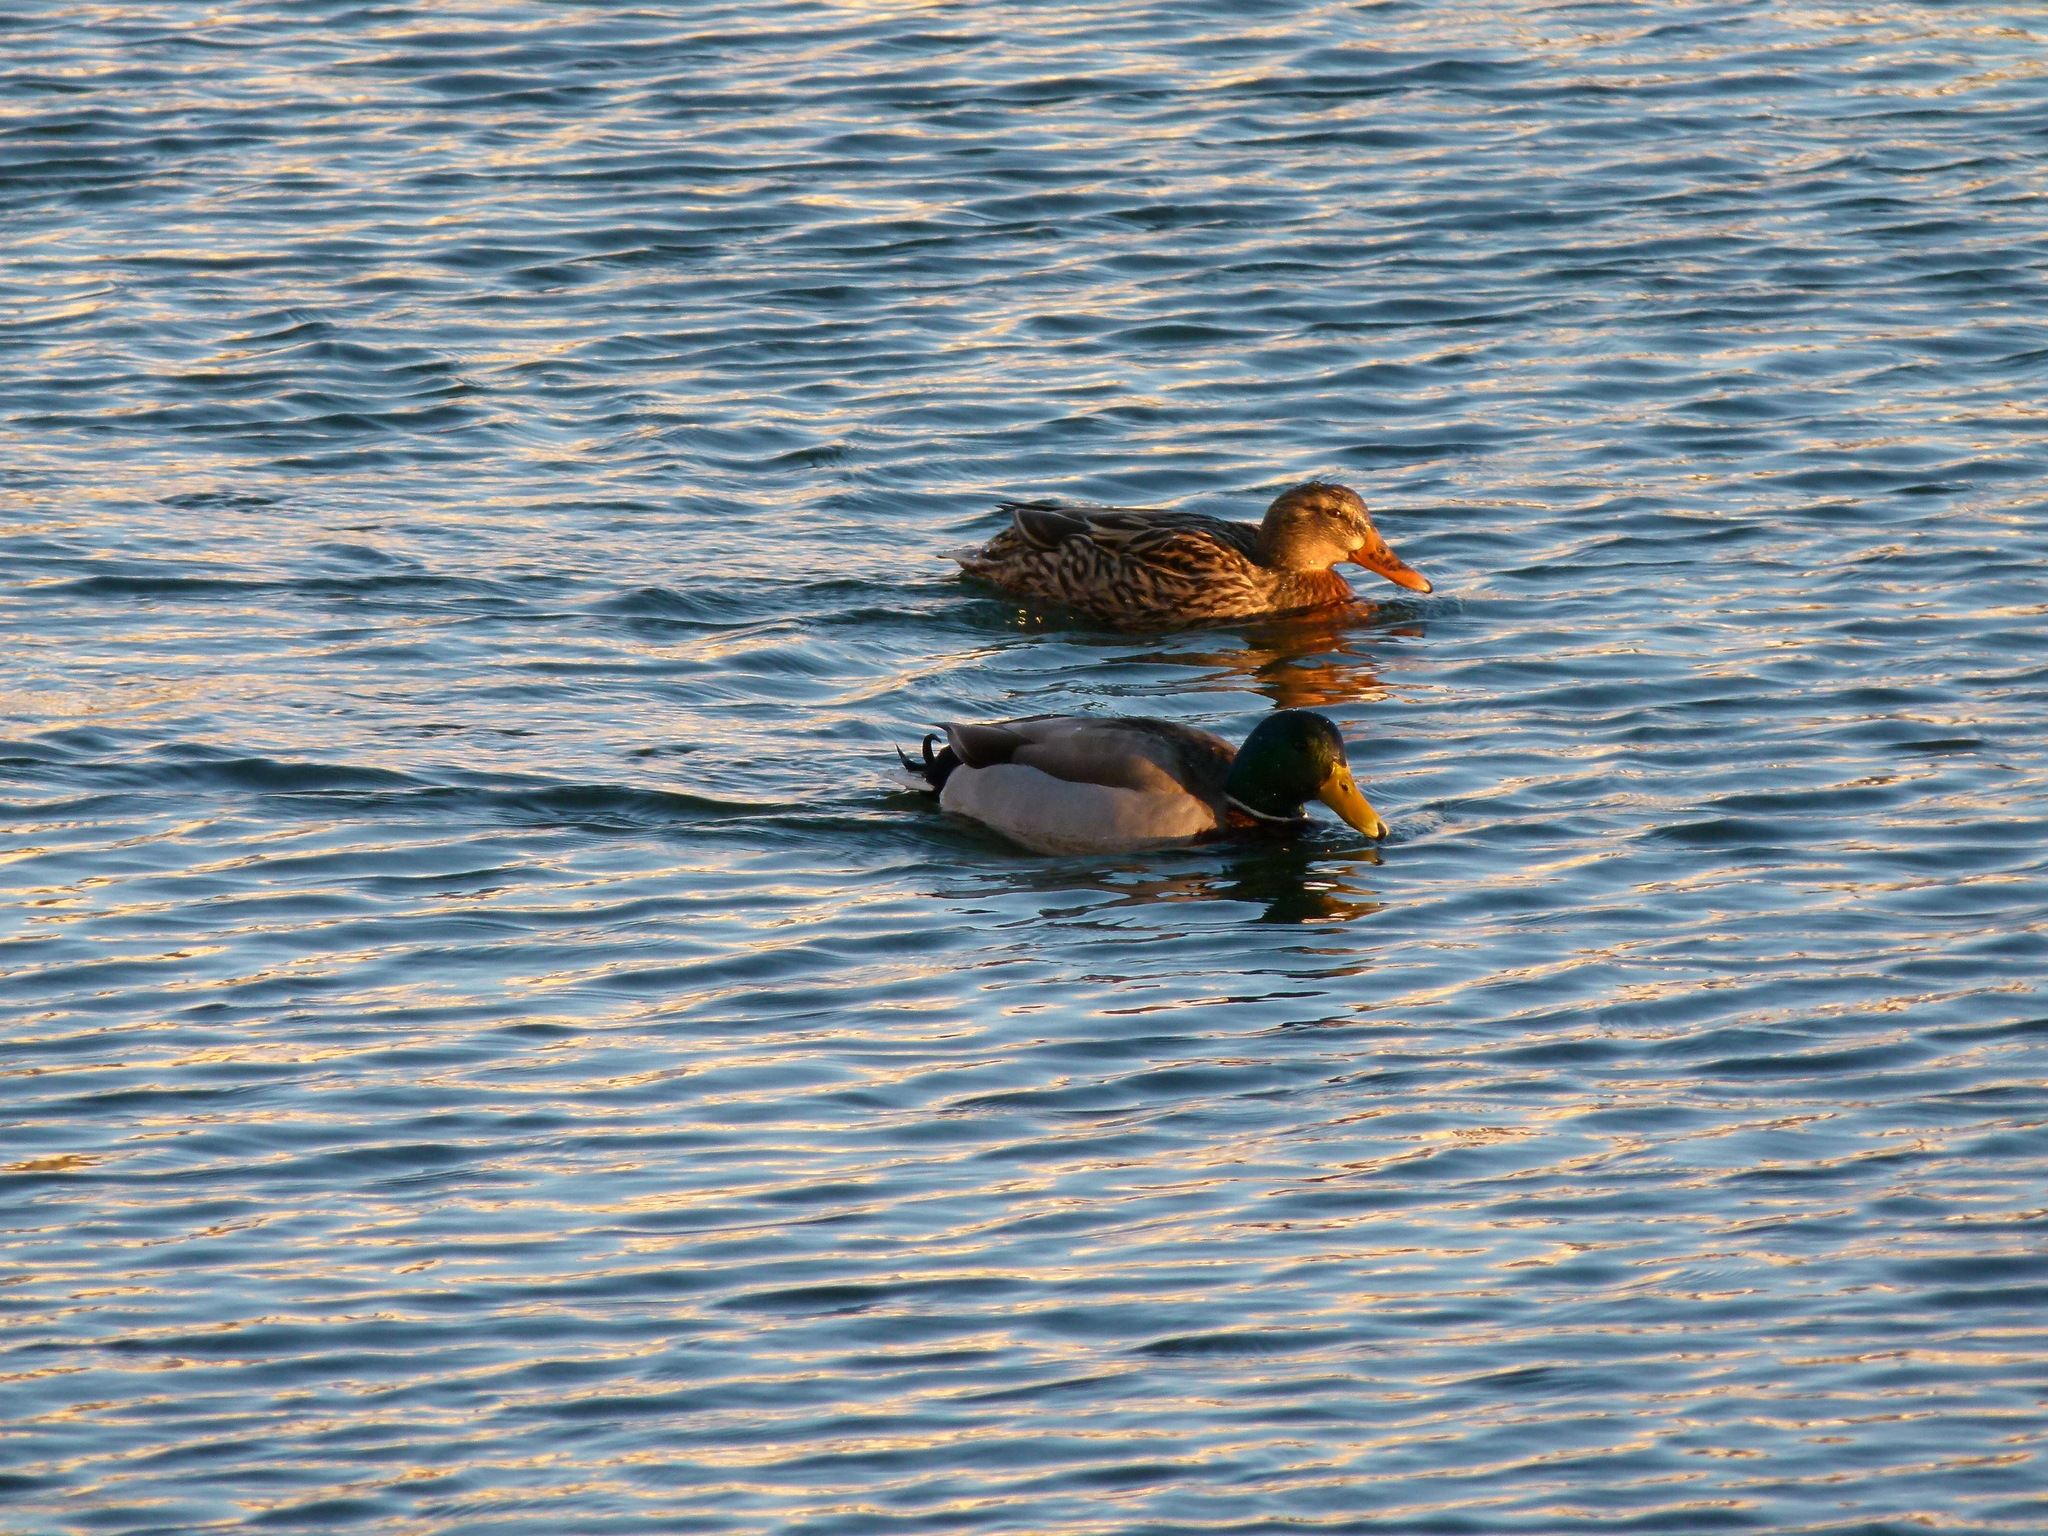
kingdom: Animalia
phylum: Chordata
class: Aves
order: Anseriformes
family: Anatidae
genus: Anas
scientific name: Anas platyrhynchos
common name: Mallard
